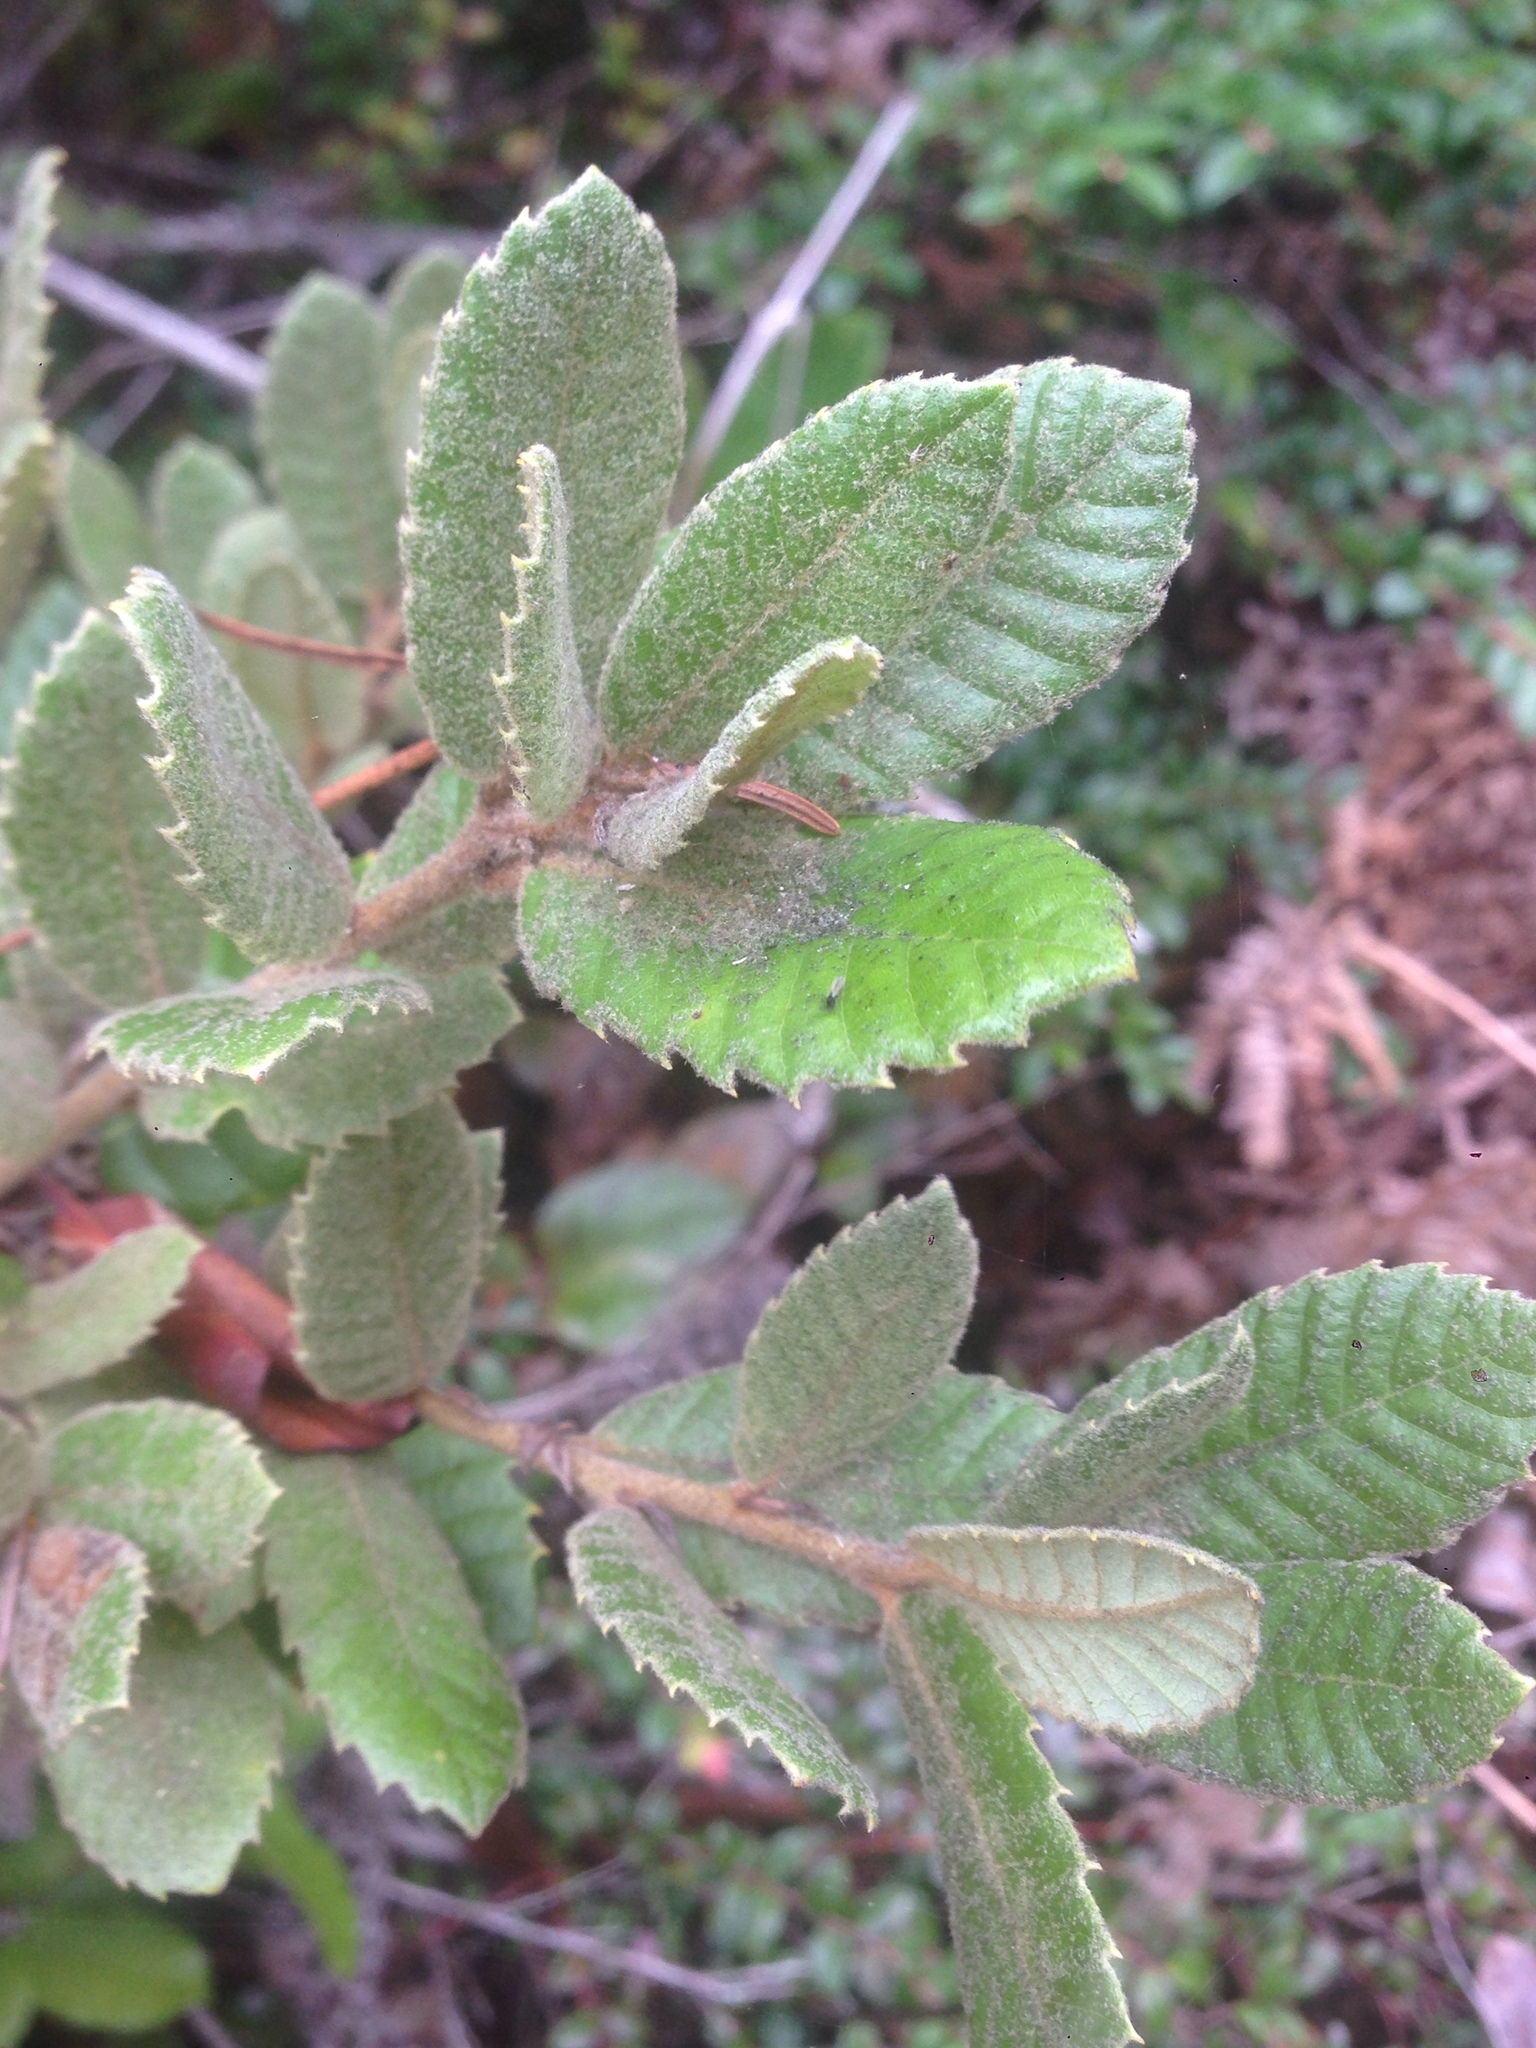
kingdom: Plantae
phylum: Tracheophyta
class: Magnoliopsida
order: Fagales
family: Fagaceae
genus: Notholithocarpus
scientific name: Notholithocarpus densiflorus
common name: Tan bark oak
